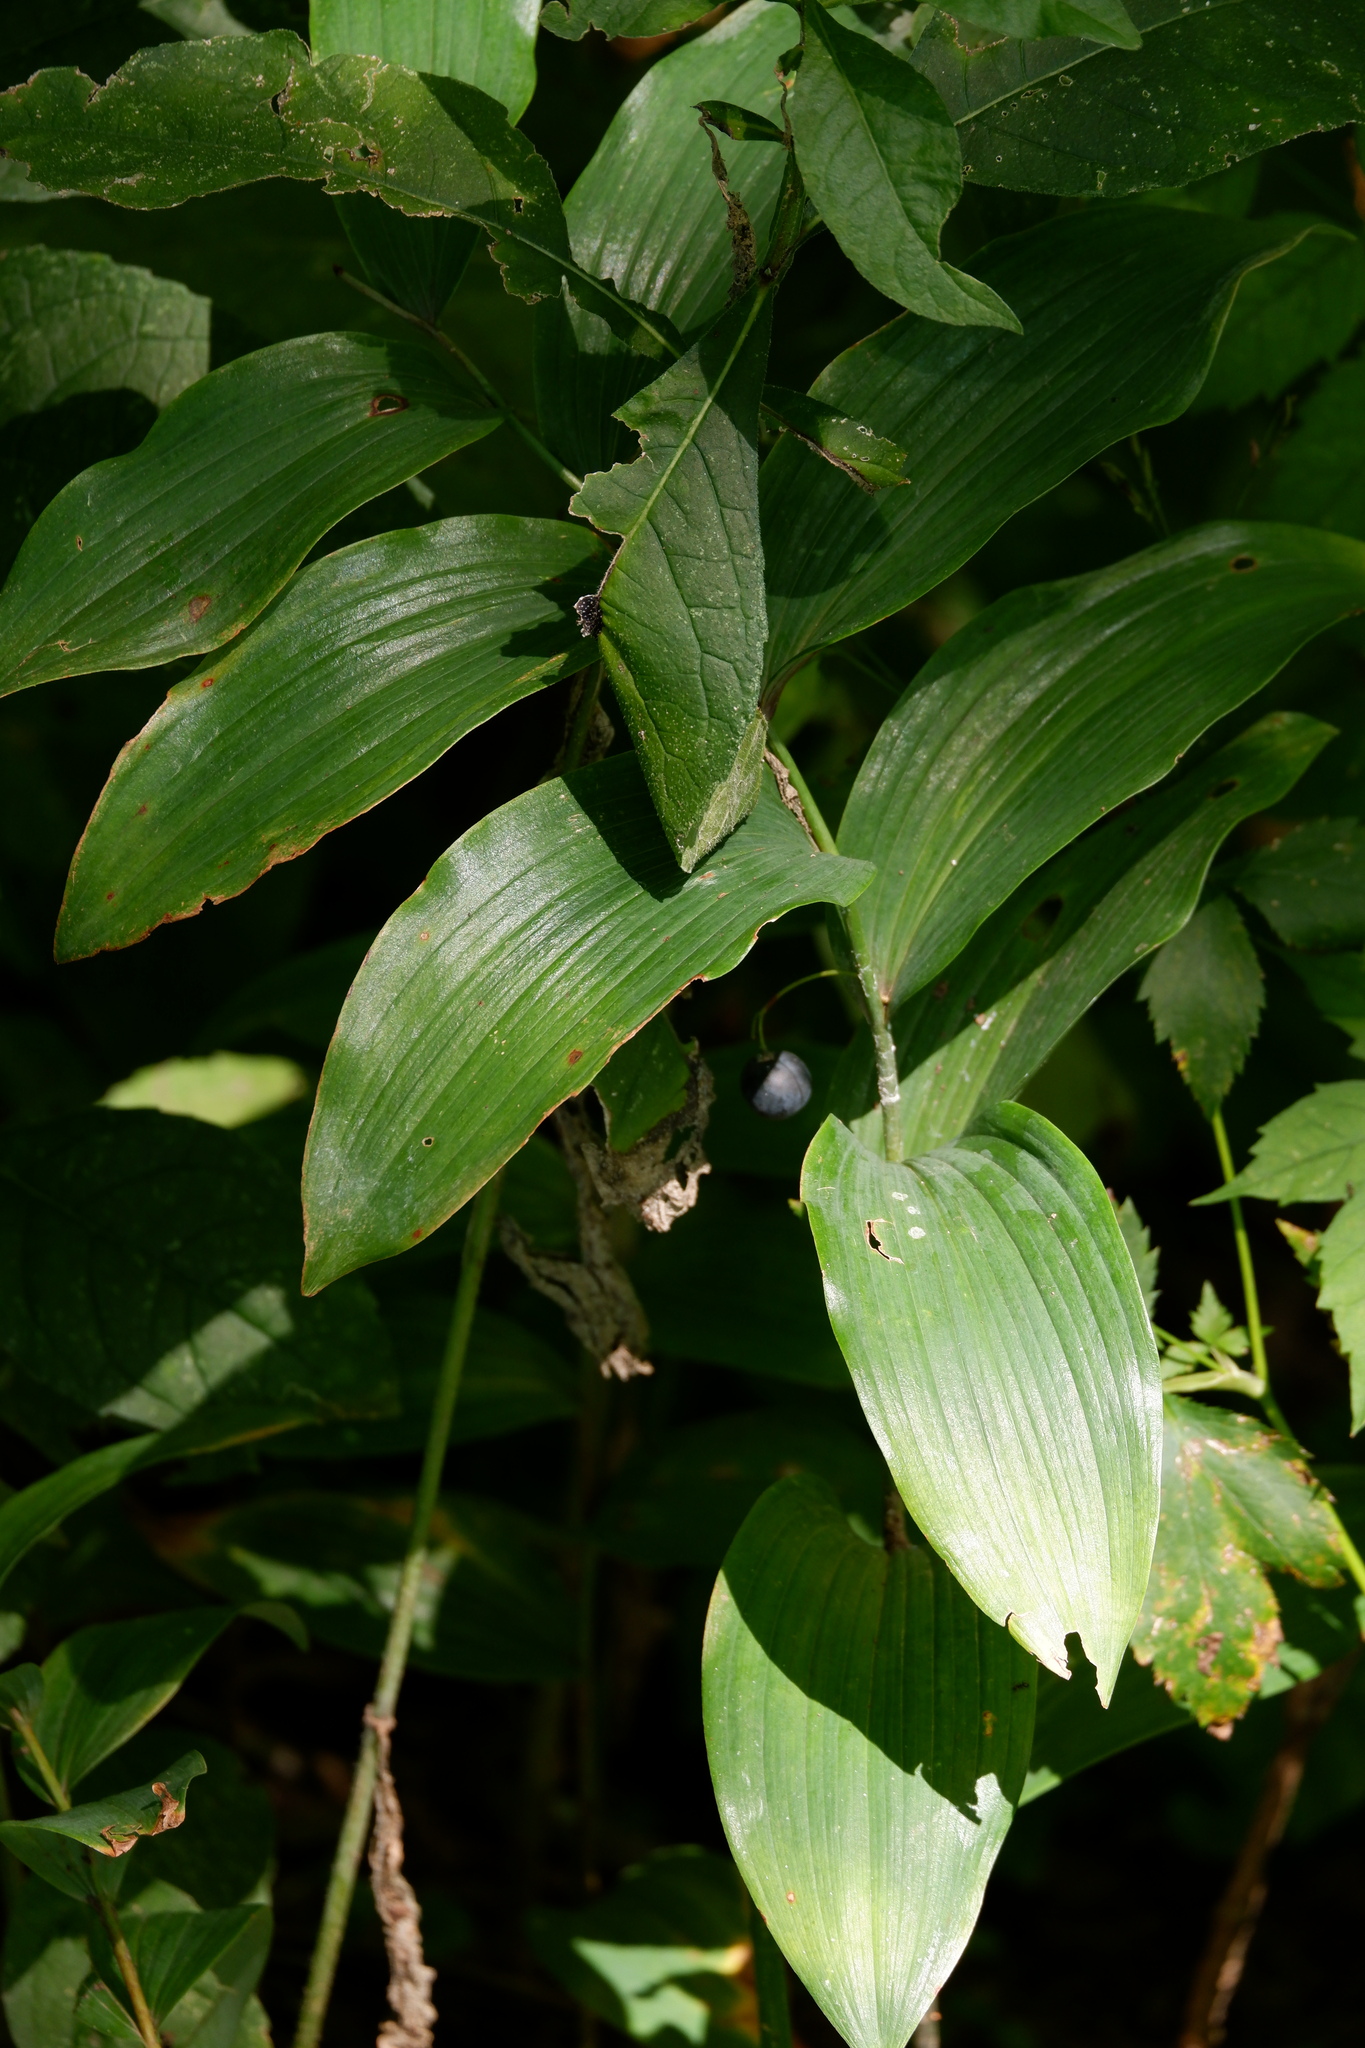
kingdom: Plantae
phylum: Tracheophyta
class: Liliopsida
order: Asparagales
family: Asparagaceae
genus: Polygonatum
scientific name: Polygonatum biflorum
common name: American solomon's-seal
